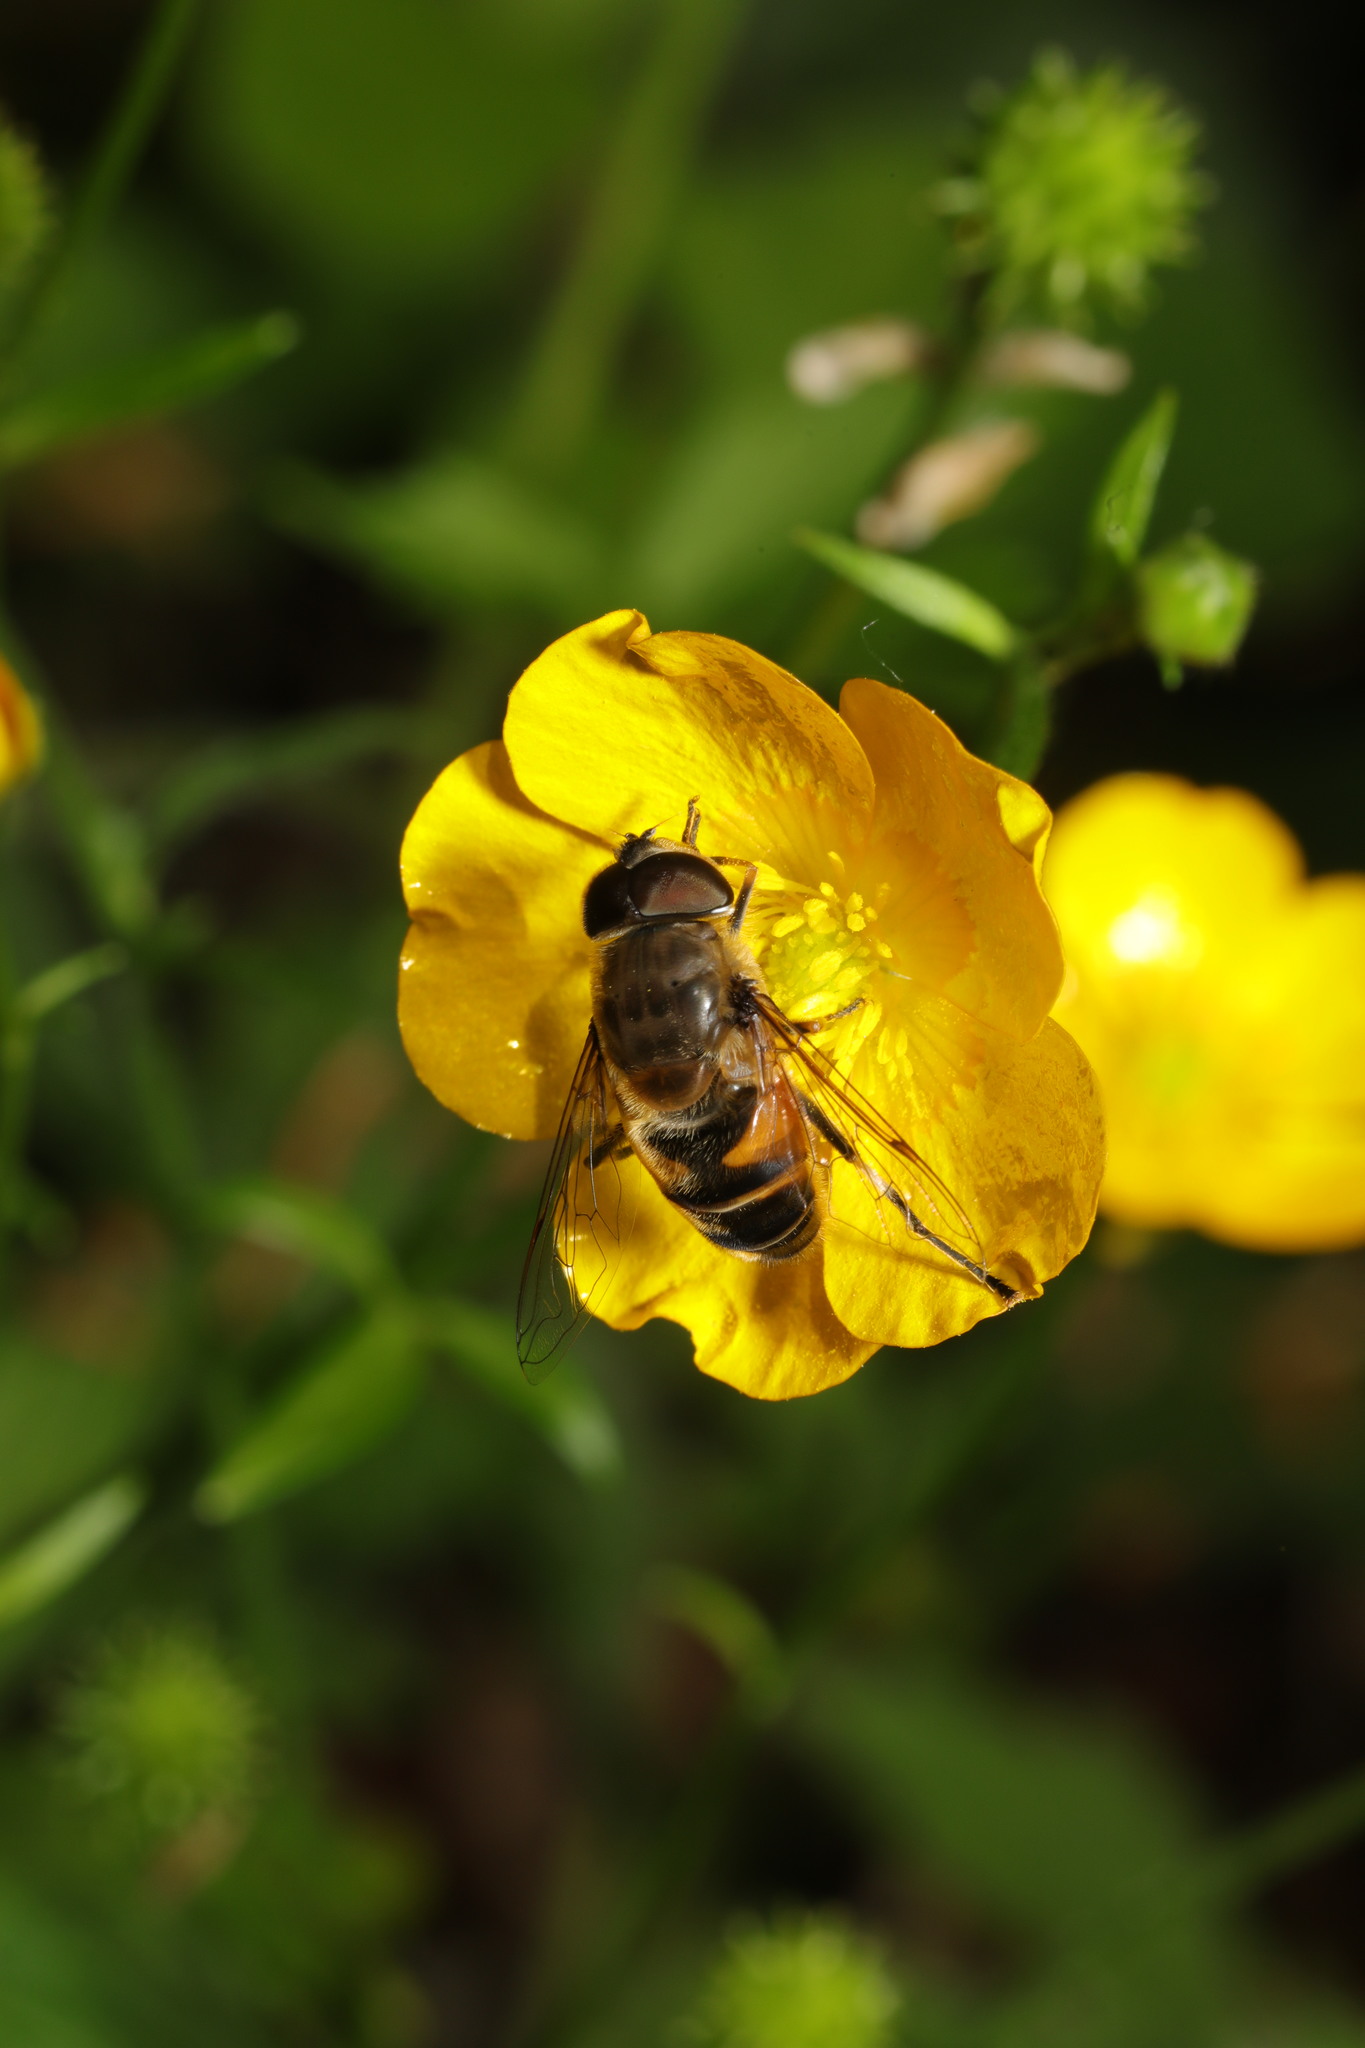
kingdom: Animalia
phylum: Arthropoda
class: Insecta
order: Diptera
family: Syrphidae
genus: Eristalis
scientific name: Eristalis pertinax
